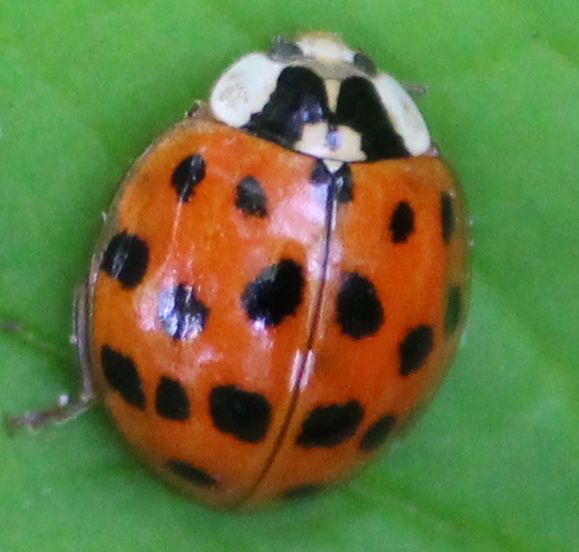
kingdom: Animalia
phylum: Arthropoda
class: Insecta
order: Coleoptera
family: Coccinellidae
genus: Harmonia
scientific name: Harmonia axyridis
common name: Harlequin ladybird
